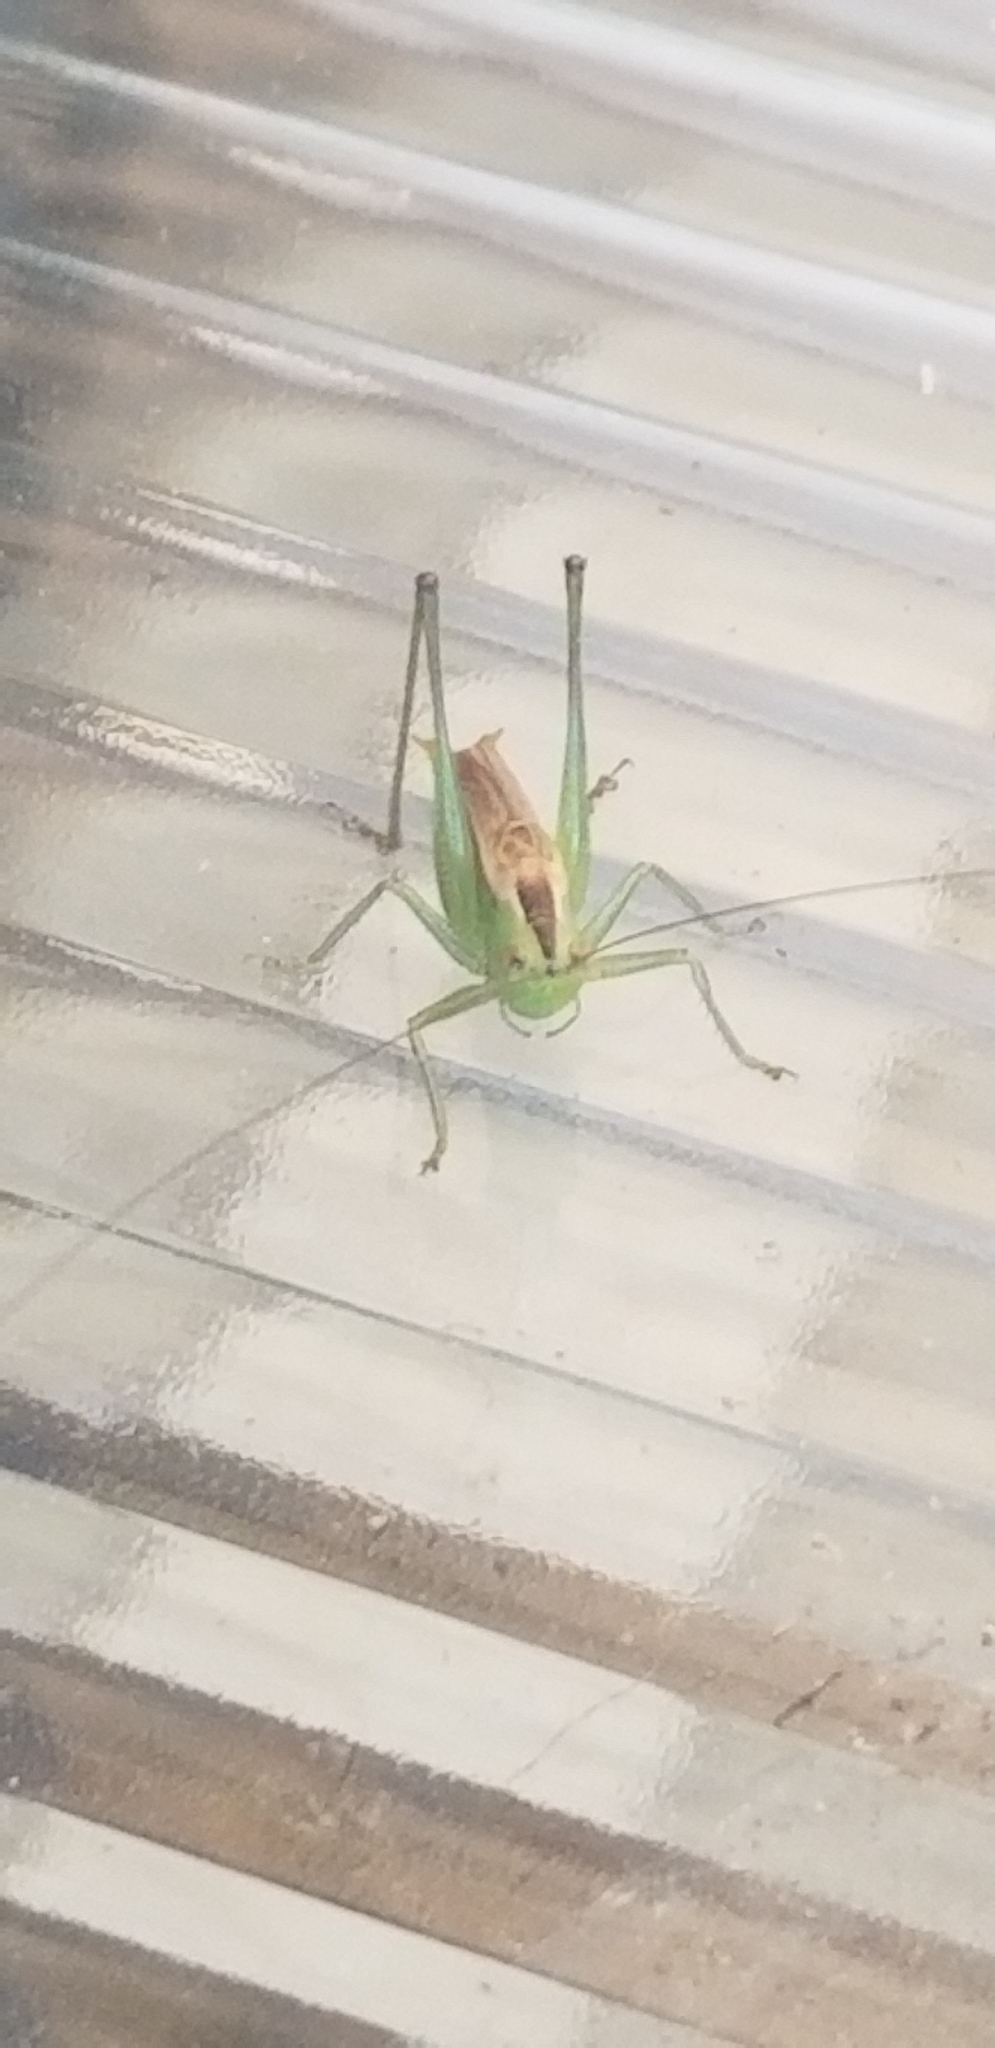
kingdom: Animalia
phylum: Arthropoda
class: Insecta
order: Orthoptera
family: Tettigoniidae
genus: Conocephalus
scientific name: Conocephalus brevipennis
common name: Short-winged meadow katydid
